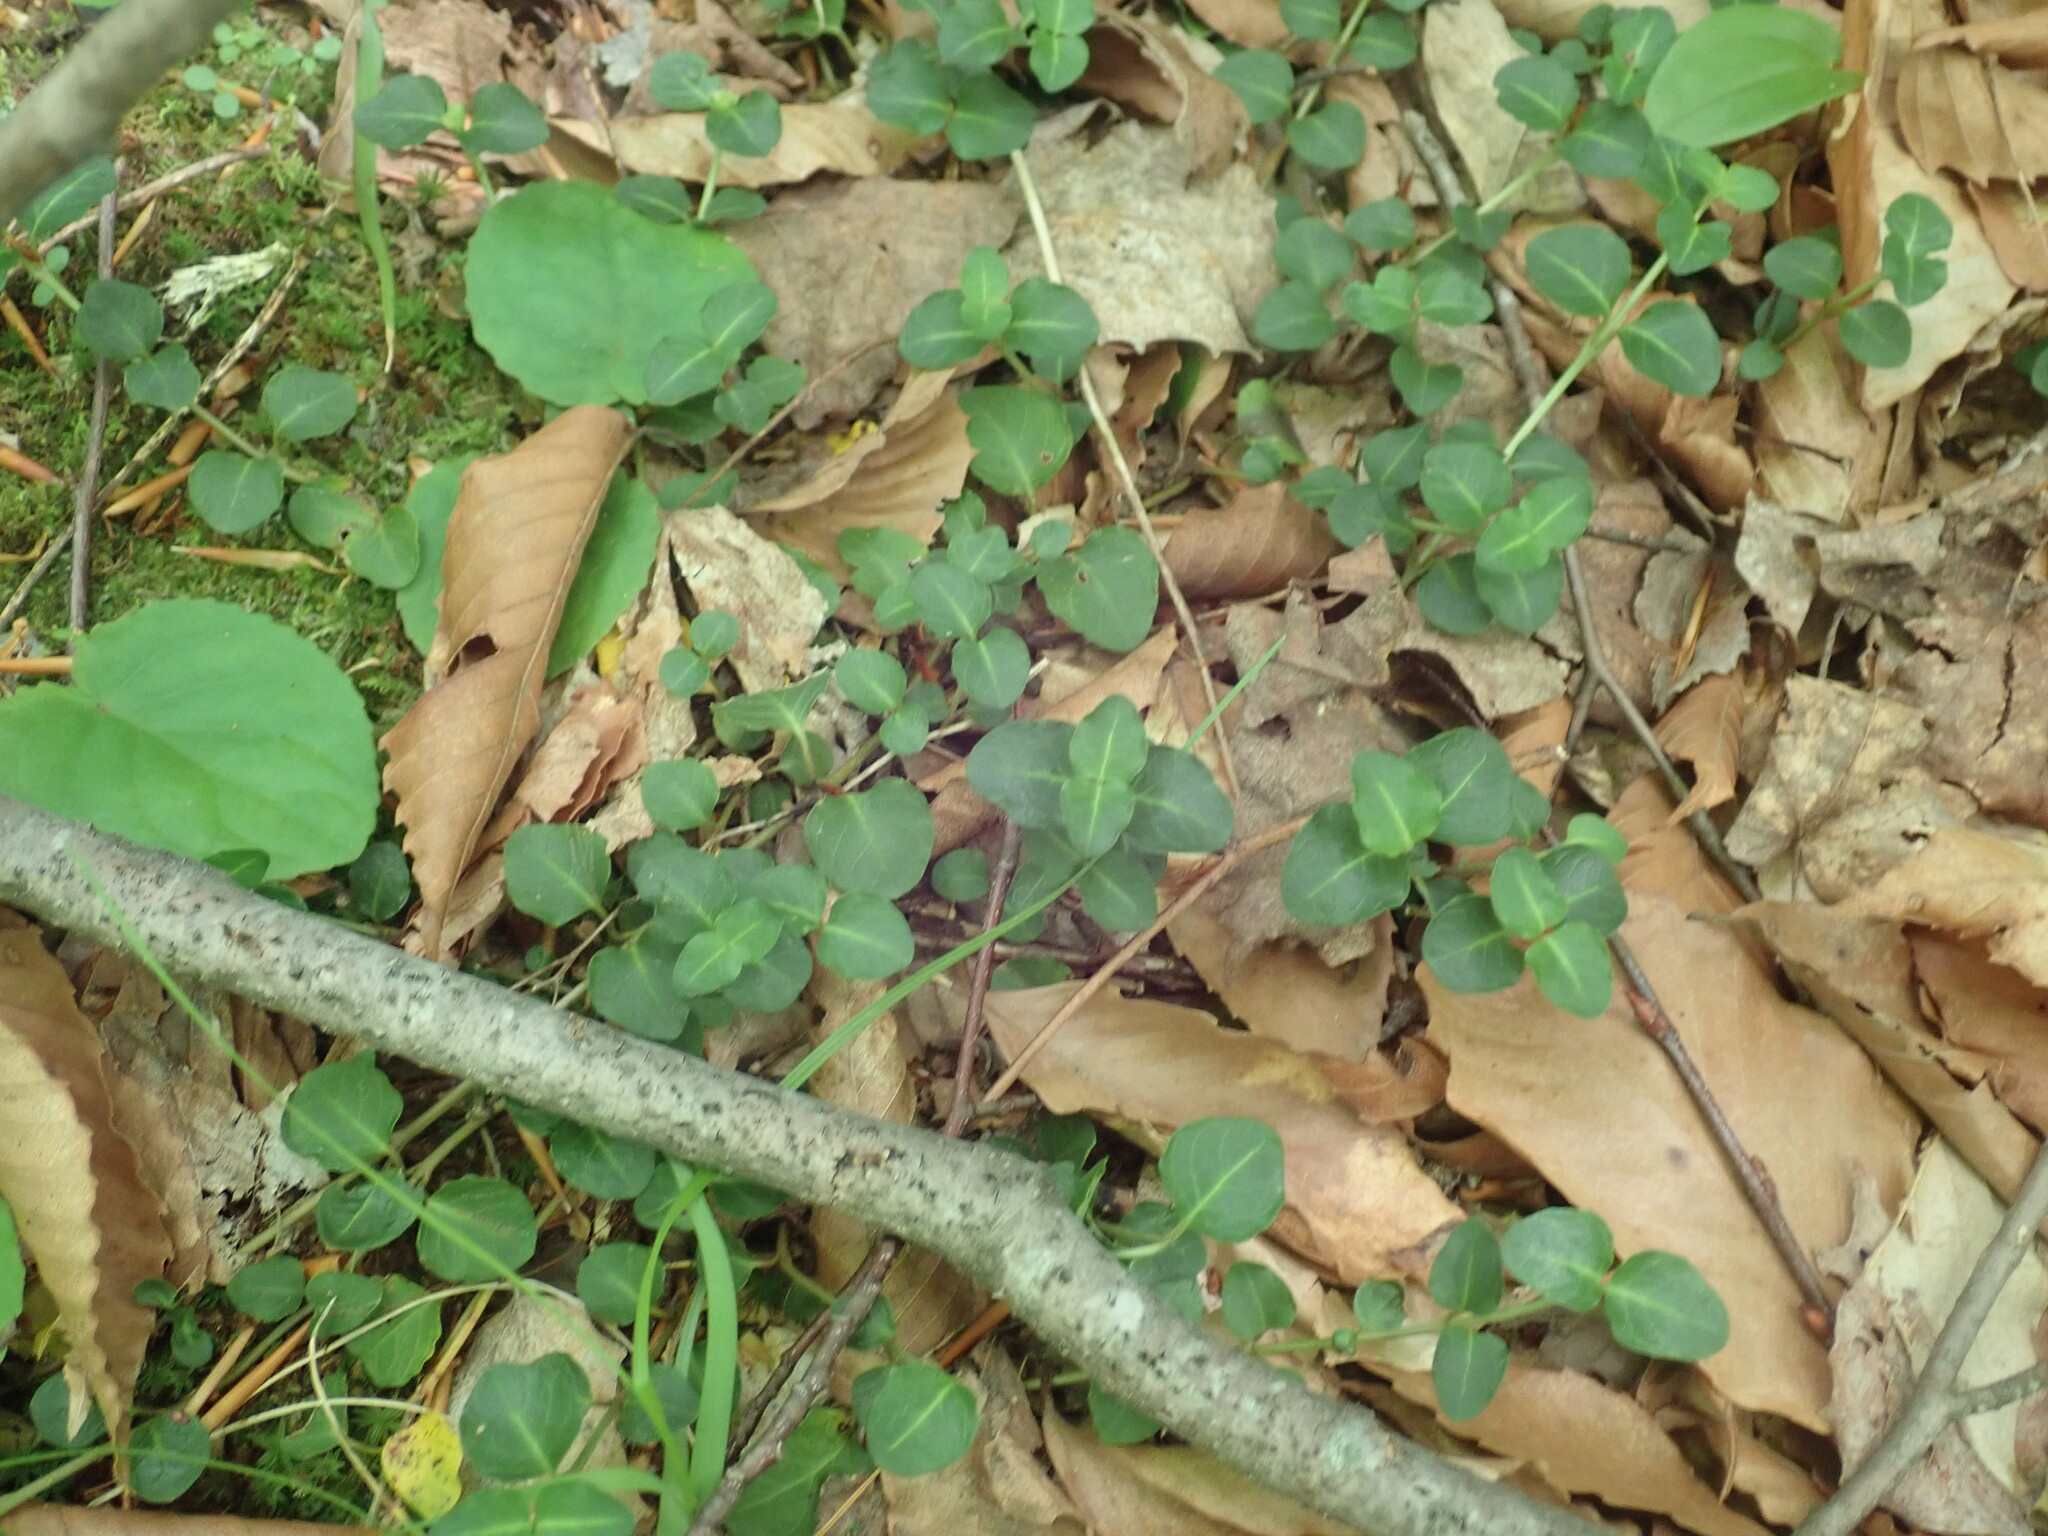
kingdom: Plantae
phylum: Tracheophyta
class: Magnoliopsida
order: Gentianales
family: Rubiaceae
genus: Mitchella
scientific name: Mitchella repens
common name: Partridge-berry
